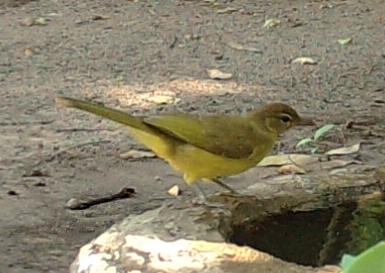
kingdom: Animalia
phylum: Chordata
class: Aves
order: Passeriformes
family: Pycnonotidae
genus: Chlorocichla
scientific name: Chlorocichla flaviventris
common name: Yellow-bellied greenbul
